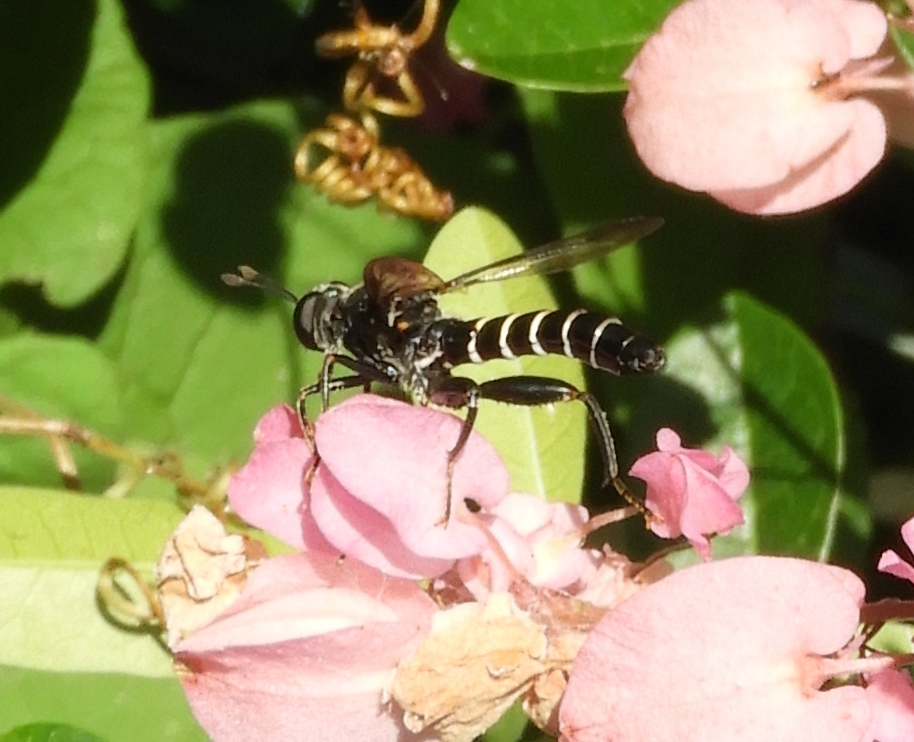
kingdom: Animalia
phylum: Arthropoda
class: Insecta
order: Diptera
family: Mydidae
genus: Mydas
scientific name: Mydas annularis
